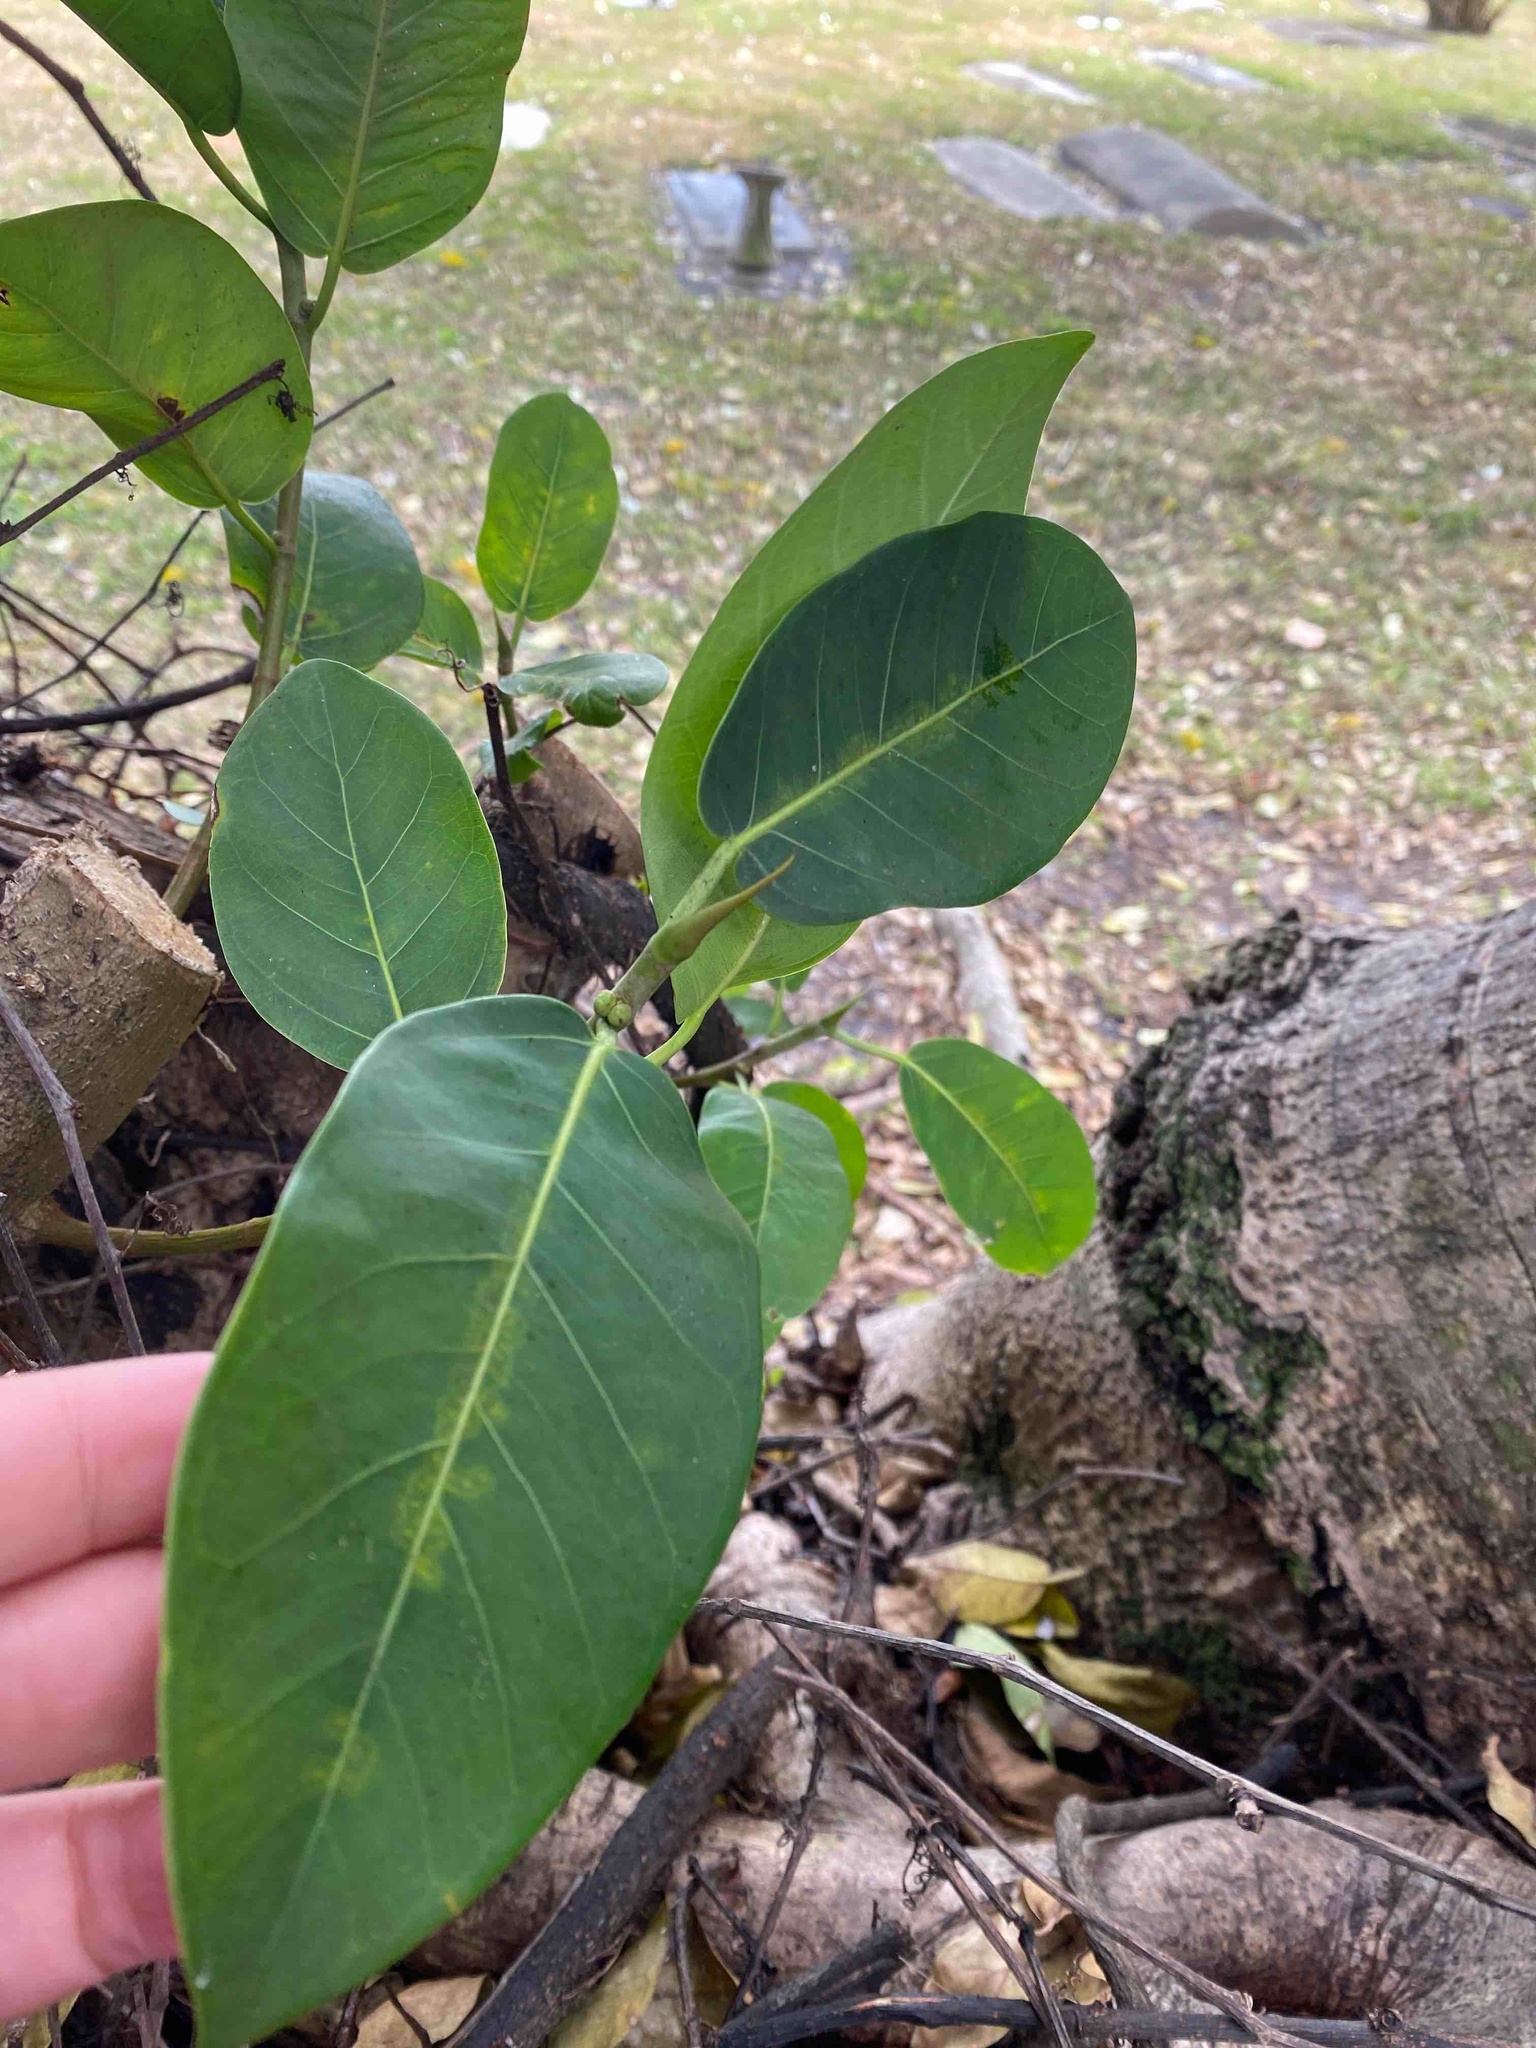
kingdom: Plantae
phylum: Tracheophyta
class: Magnoliopsida
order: Rosales
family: Moraceae
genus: Ficus
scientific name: Ficus aurea
